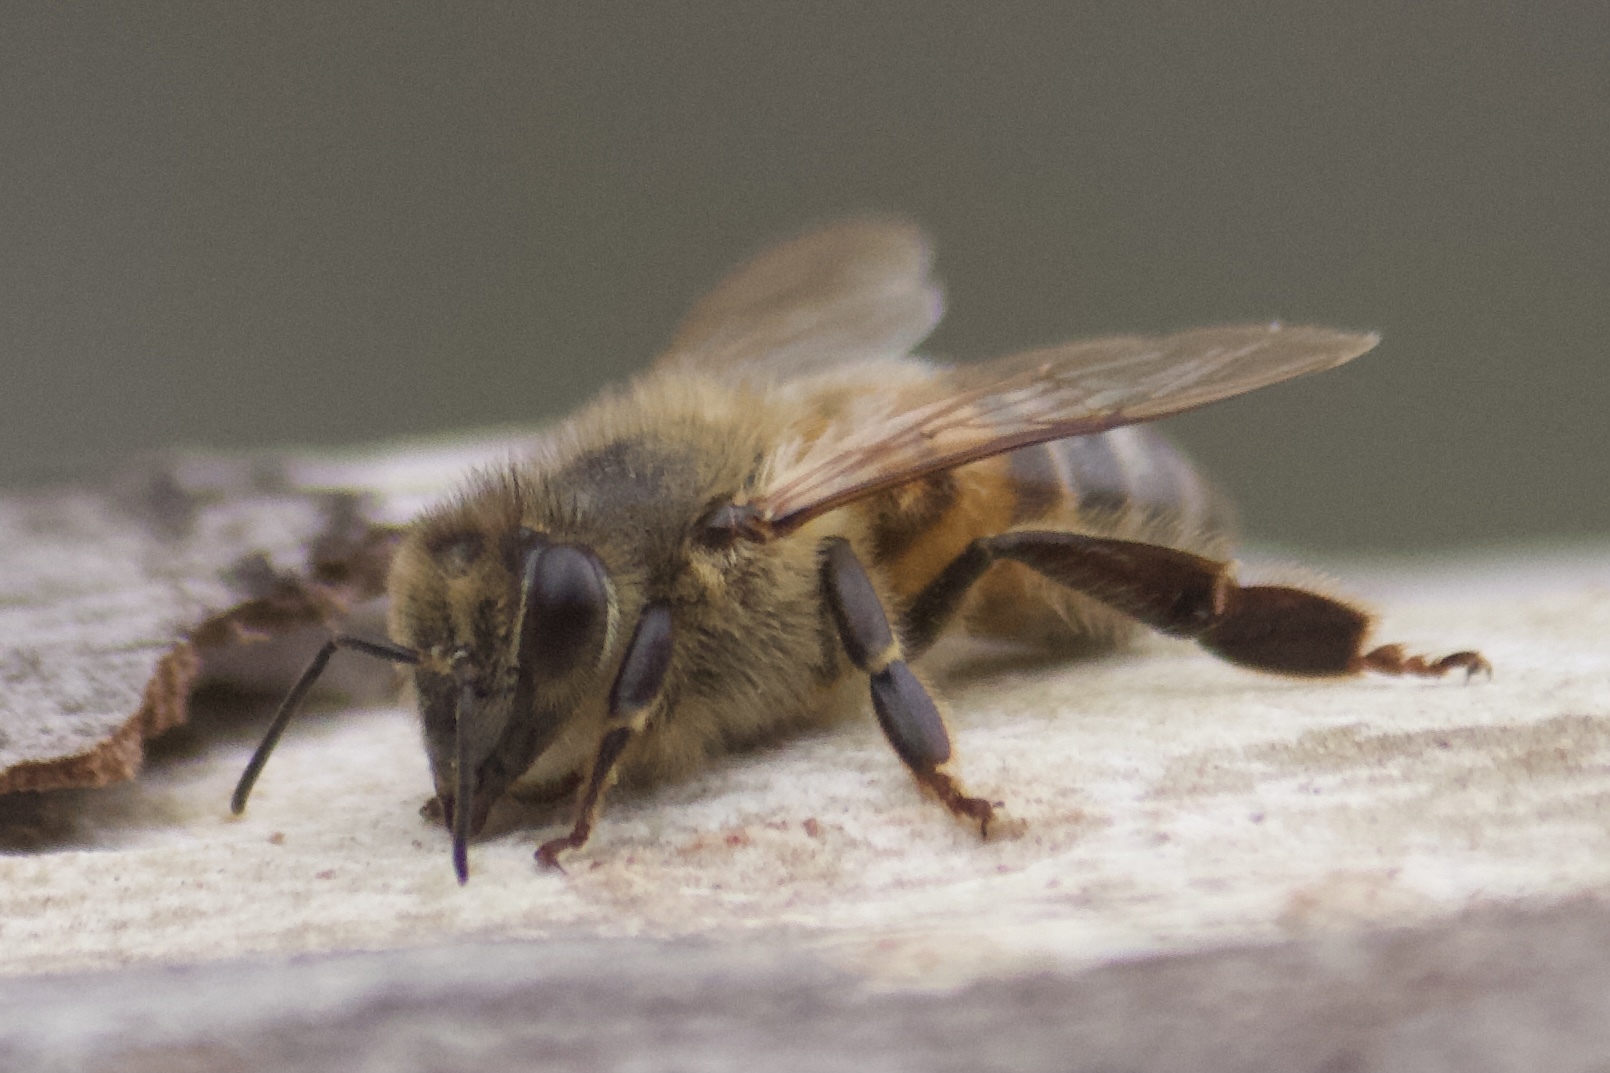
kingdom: Animalia
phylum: Arthropoda
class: Insecta
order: Hymenoptera
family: Apidae
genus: Apis
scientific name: Apis mellifera
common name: Honey bee
